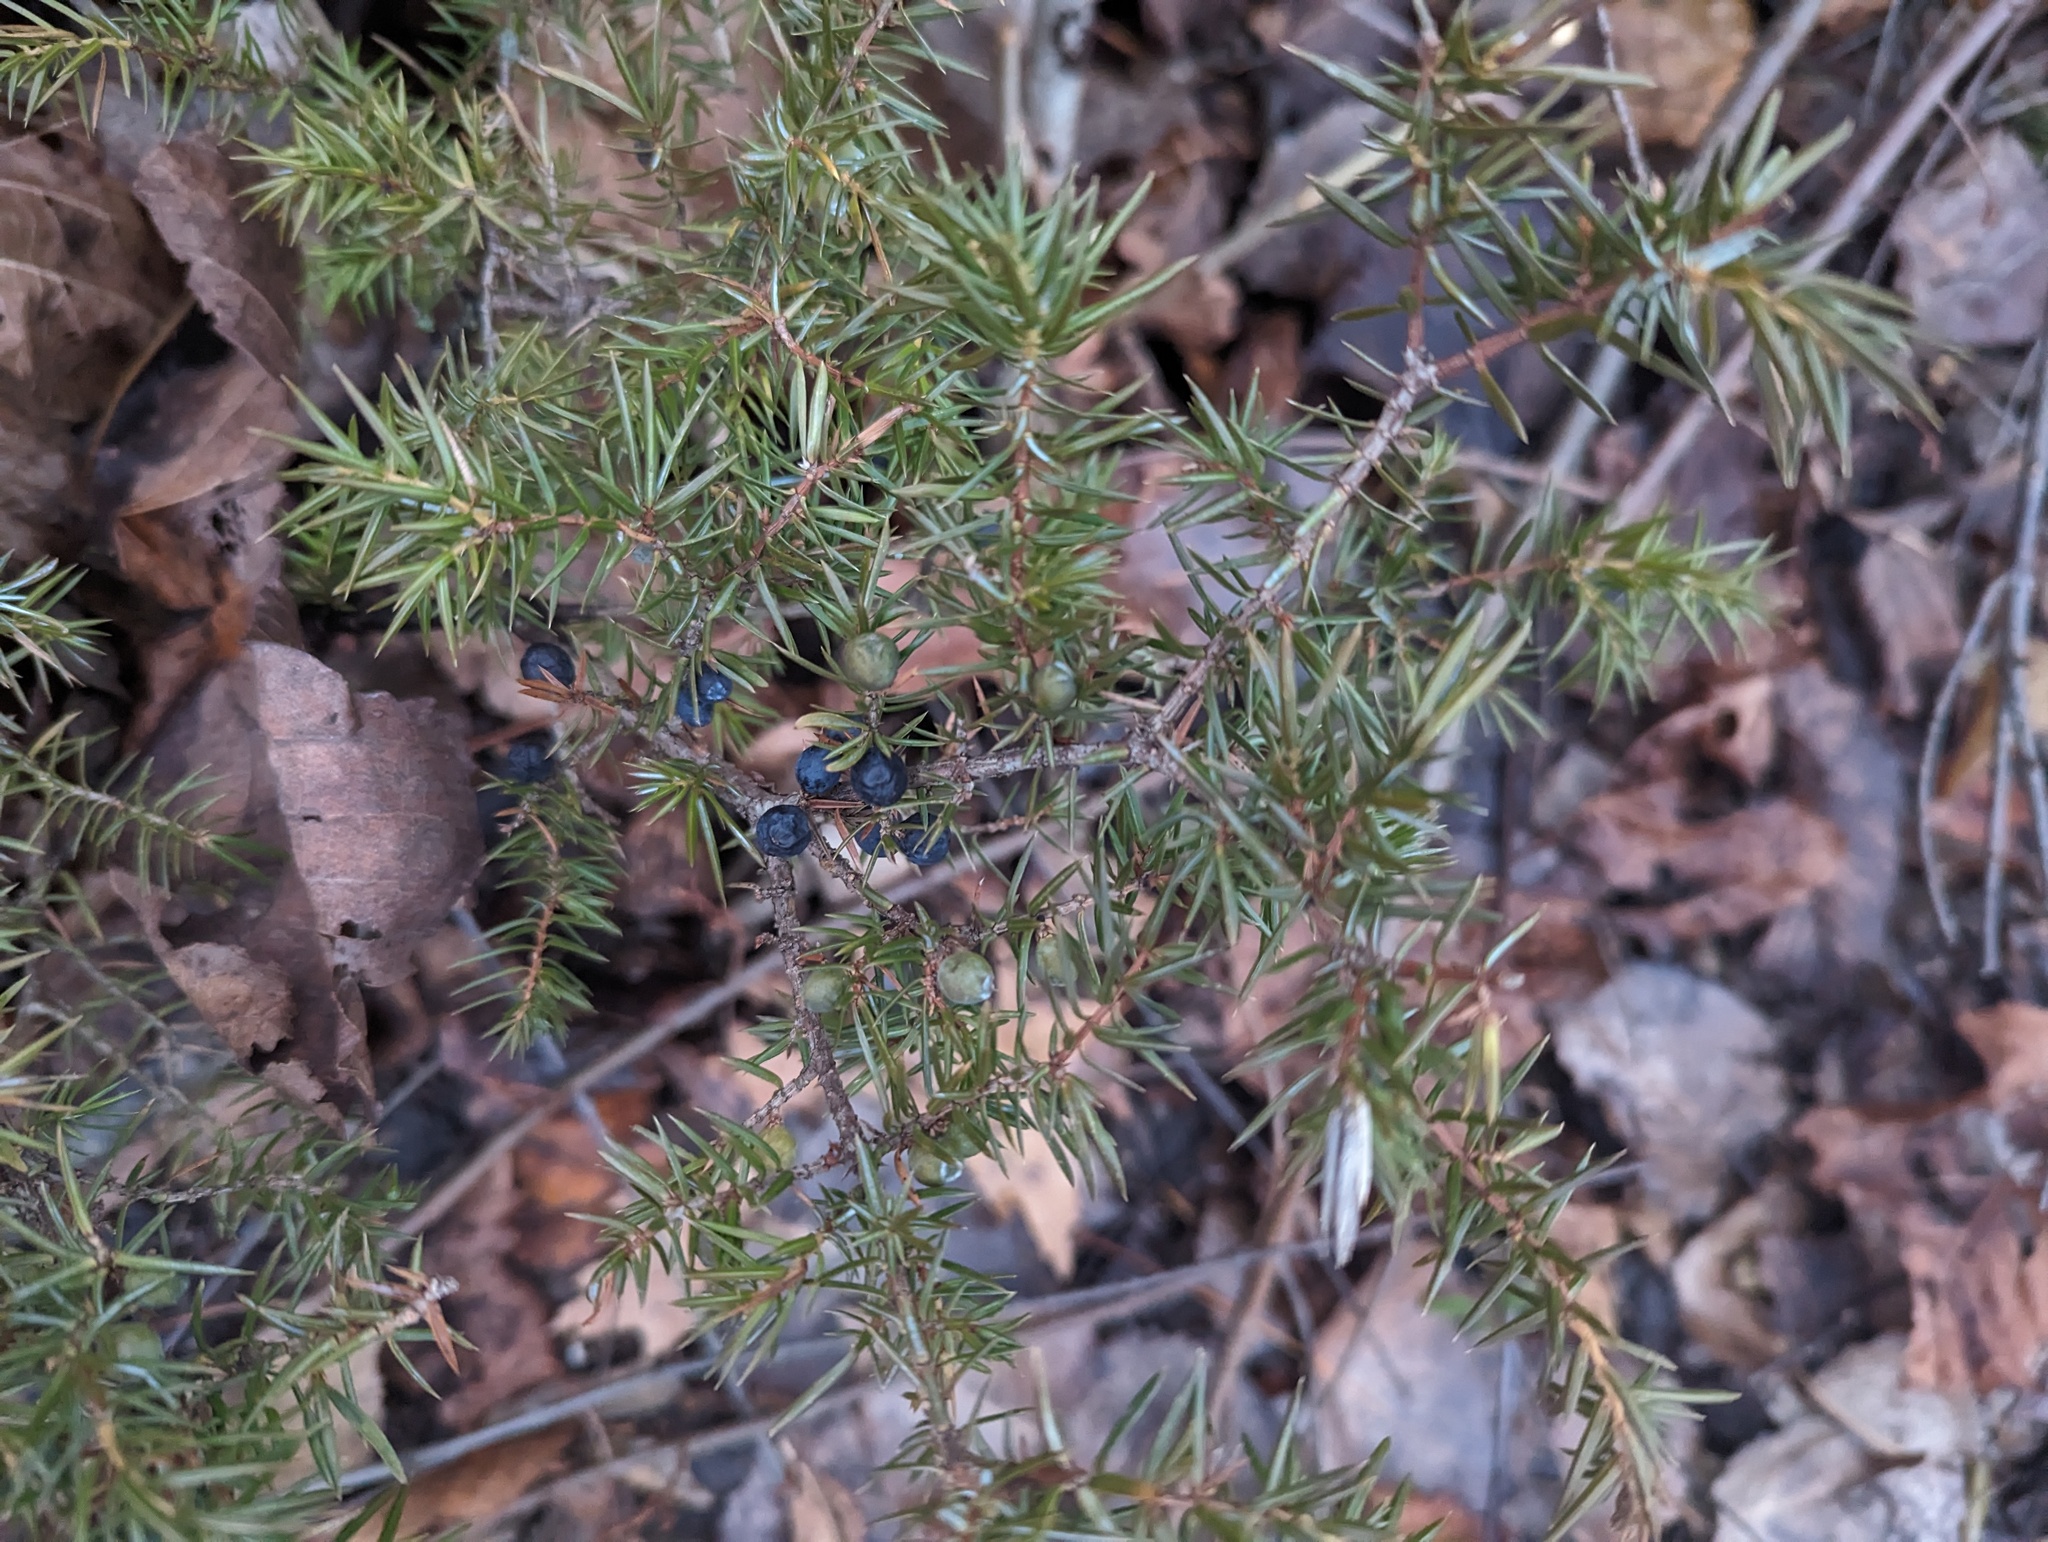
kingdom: Plantae
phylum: Tracheophyta
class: Pinopsida
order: Pinales
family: Cupressaceae
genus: Juniperus
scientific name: Juniperus communis
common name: Common juniper
